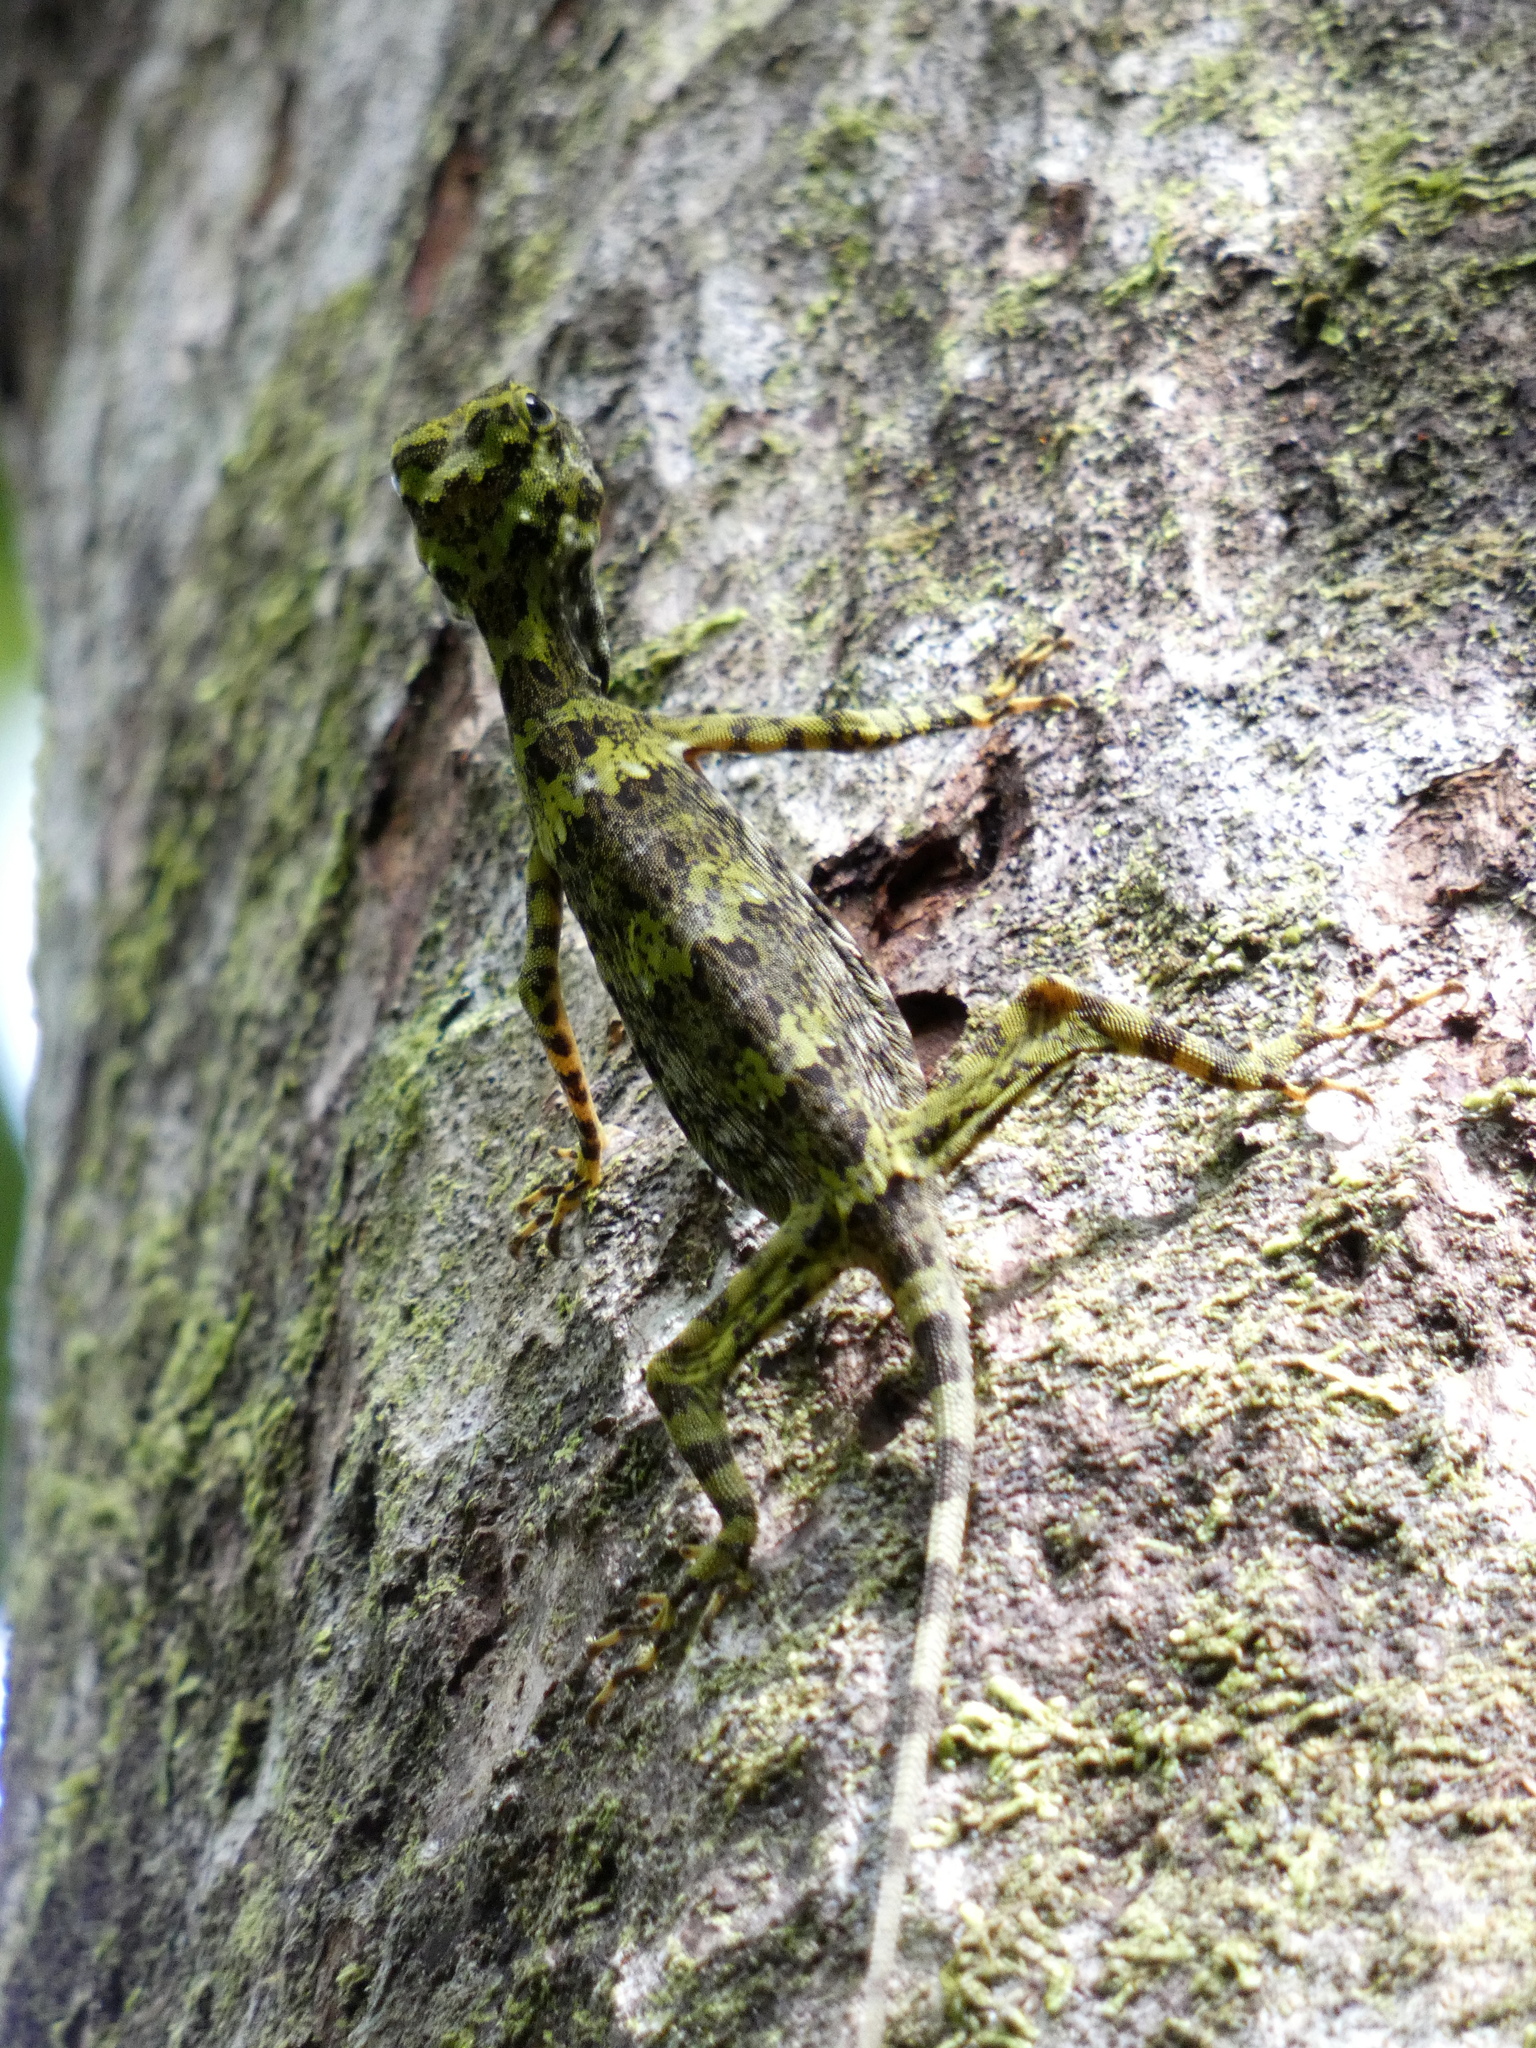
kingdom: Animalia
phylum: Chordata
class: Squamata
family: Agamidae
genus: Draco
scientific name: Draco maximus
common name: Great flying dragon
